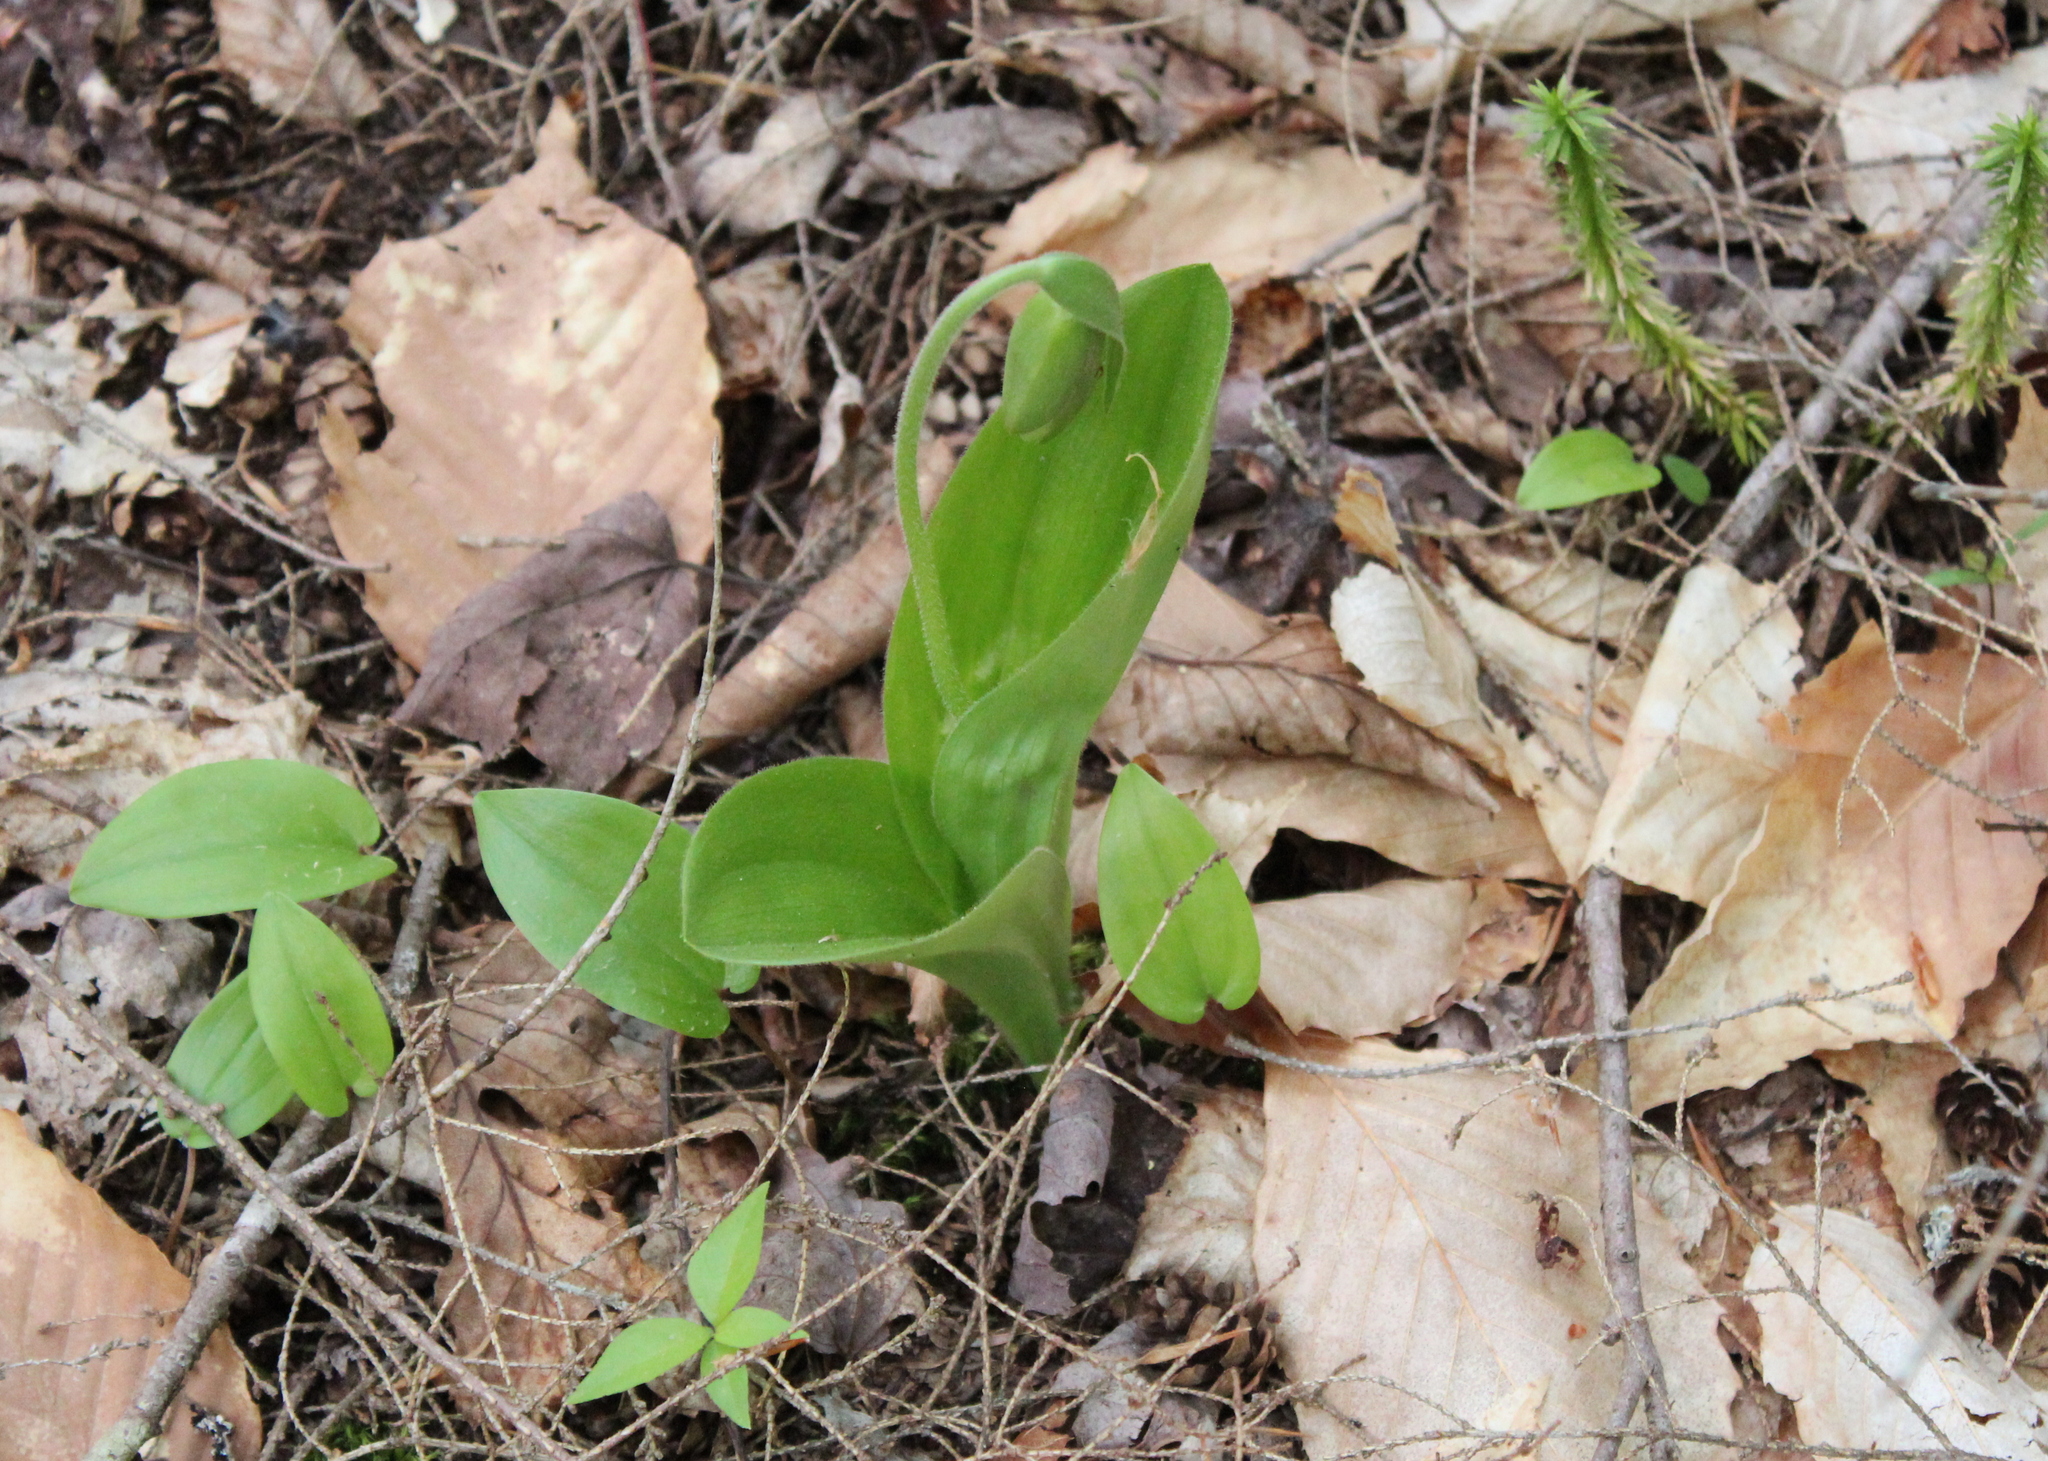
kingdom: Plantae
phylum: Tracheophyta
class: Liliopsida
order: Asparagales
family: Orchidaceae
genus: Cypripedium
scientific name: Cypripedium acaule
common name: Pink lady's-slipper
